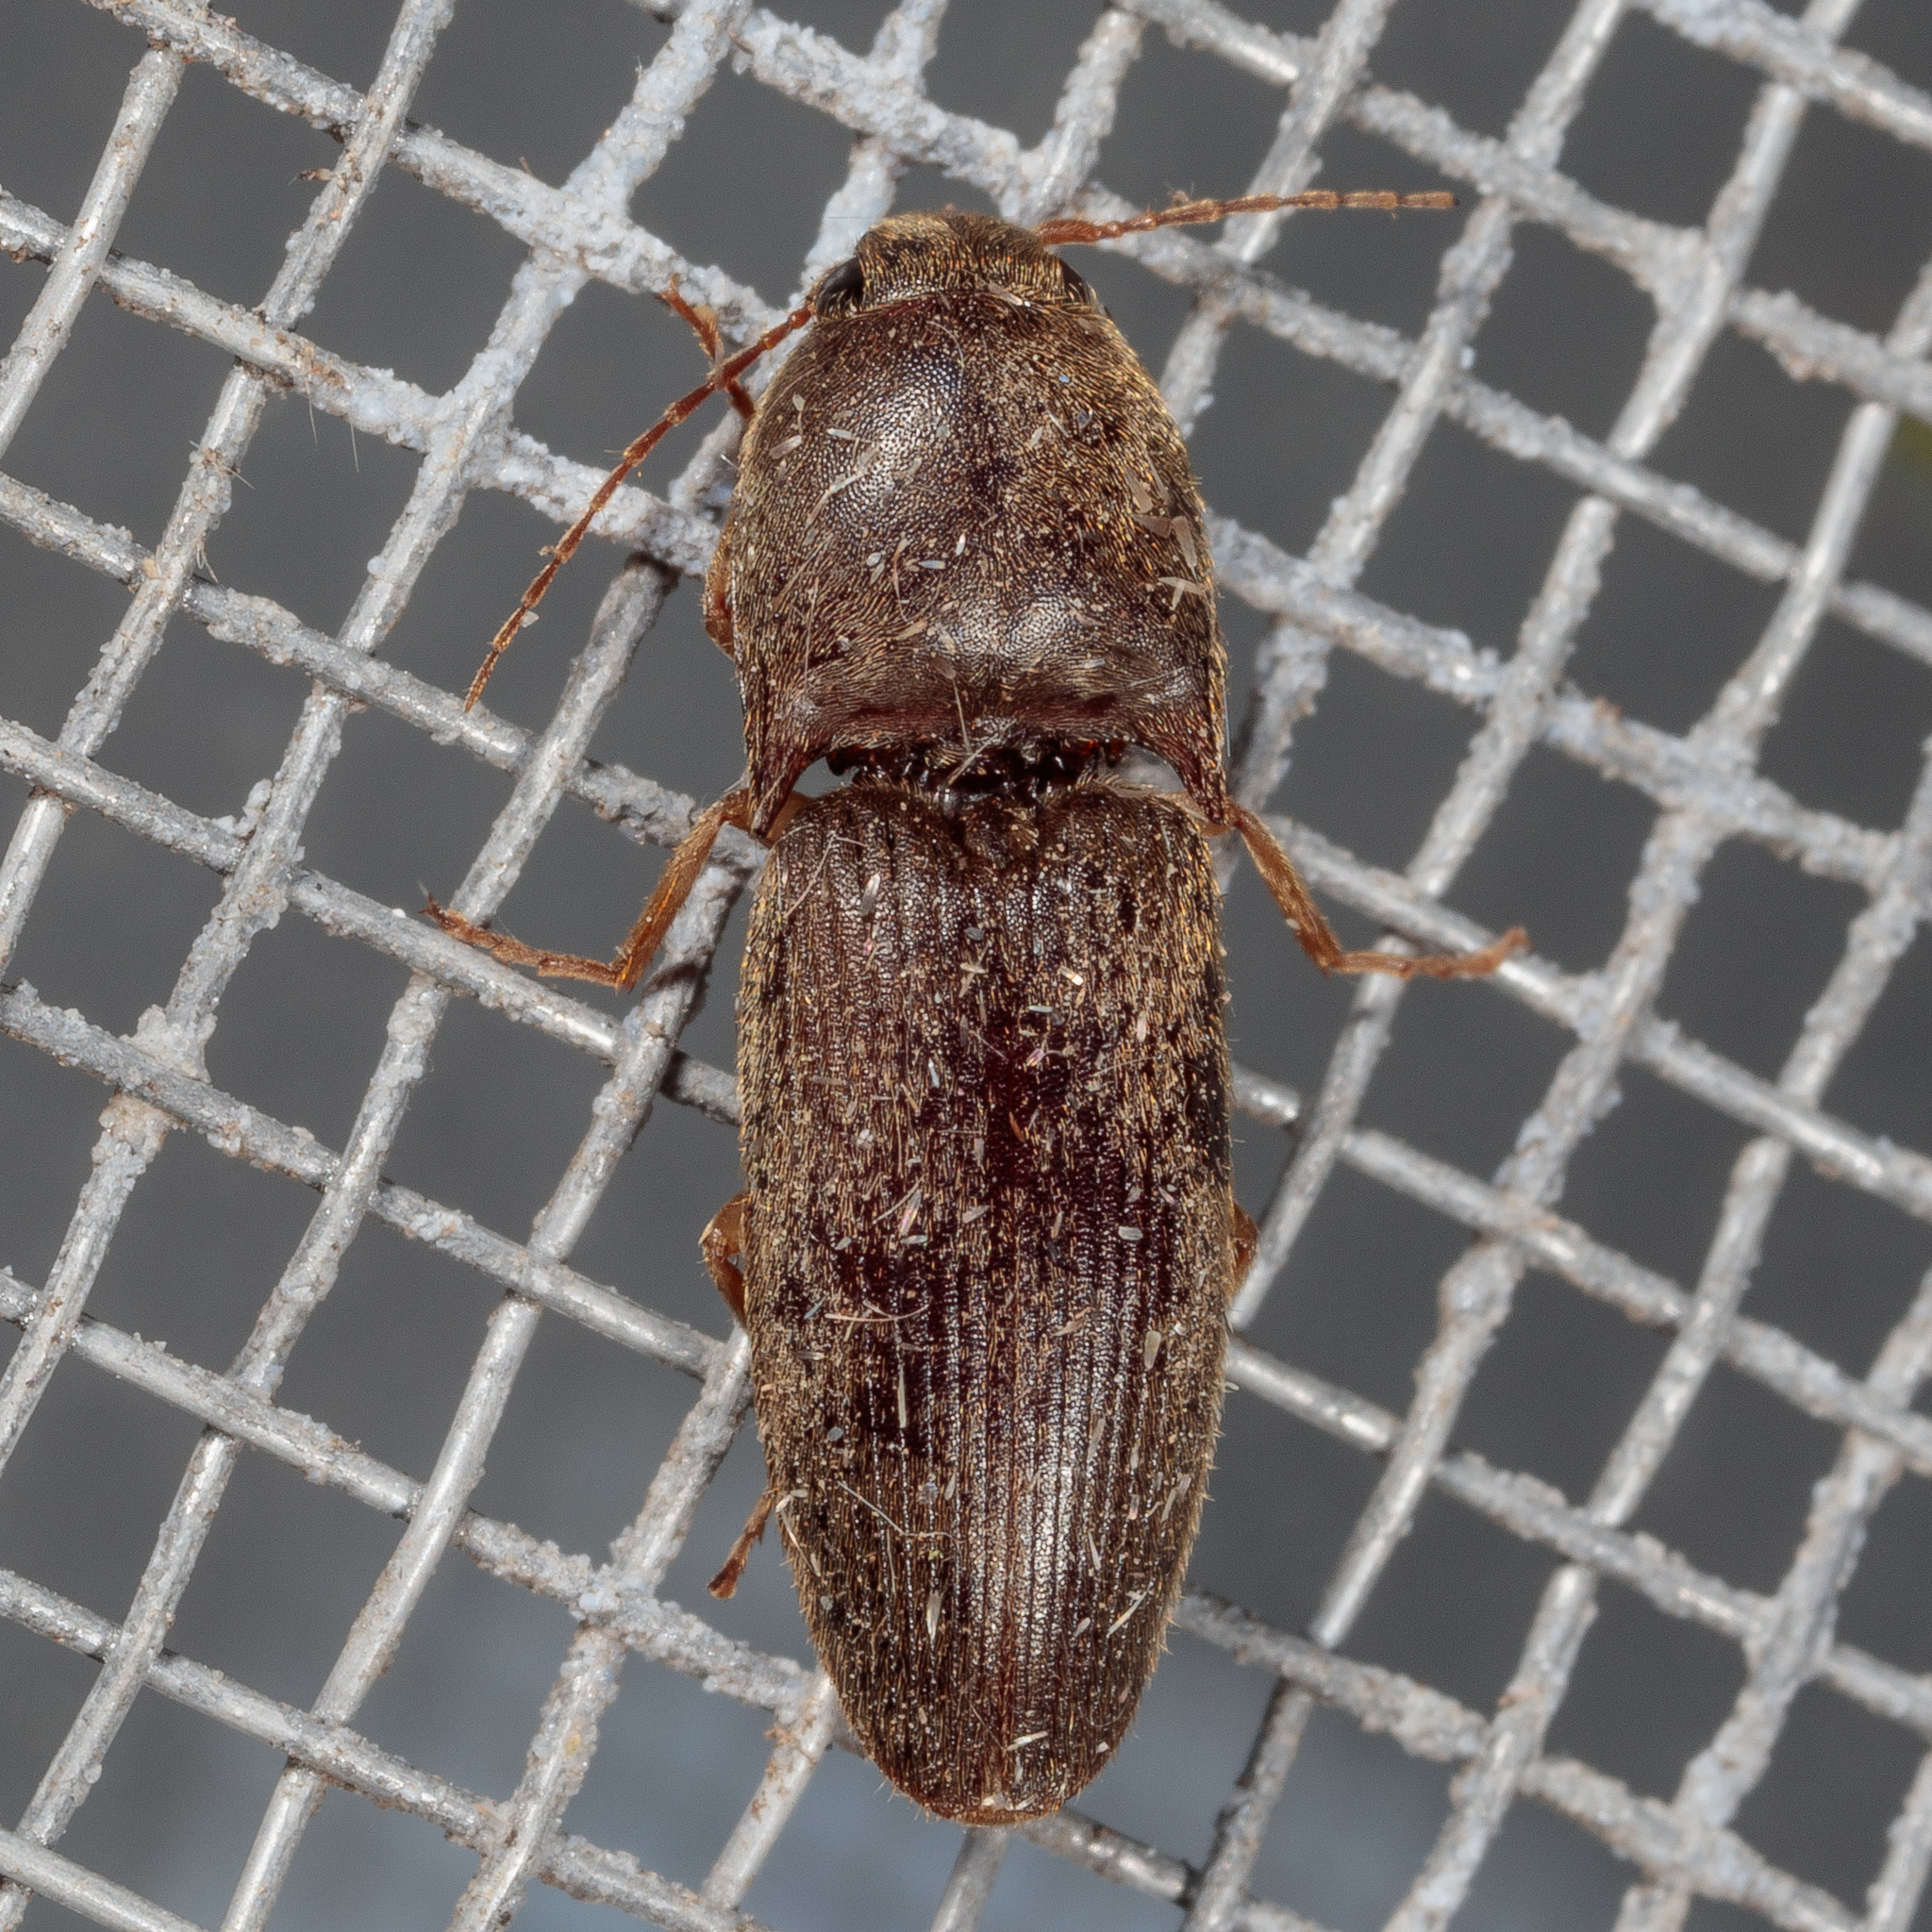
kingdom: Animalia
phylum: Arthropoda
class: Insecta
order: Coleoptera
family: Elateridae
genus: Conoderus
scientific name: Conoderus exsul
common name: Click beetle
